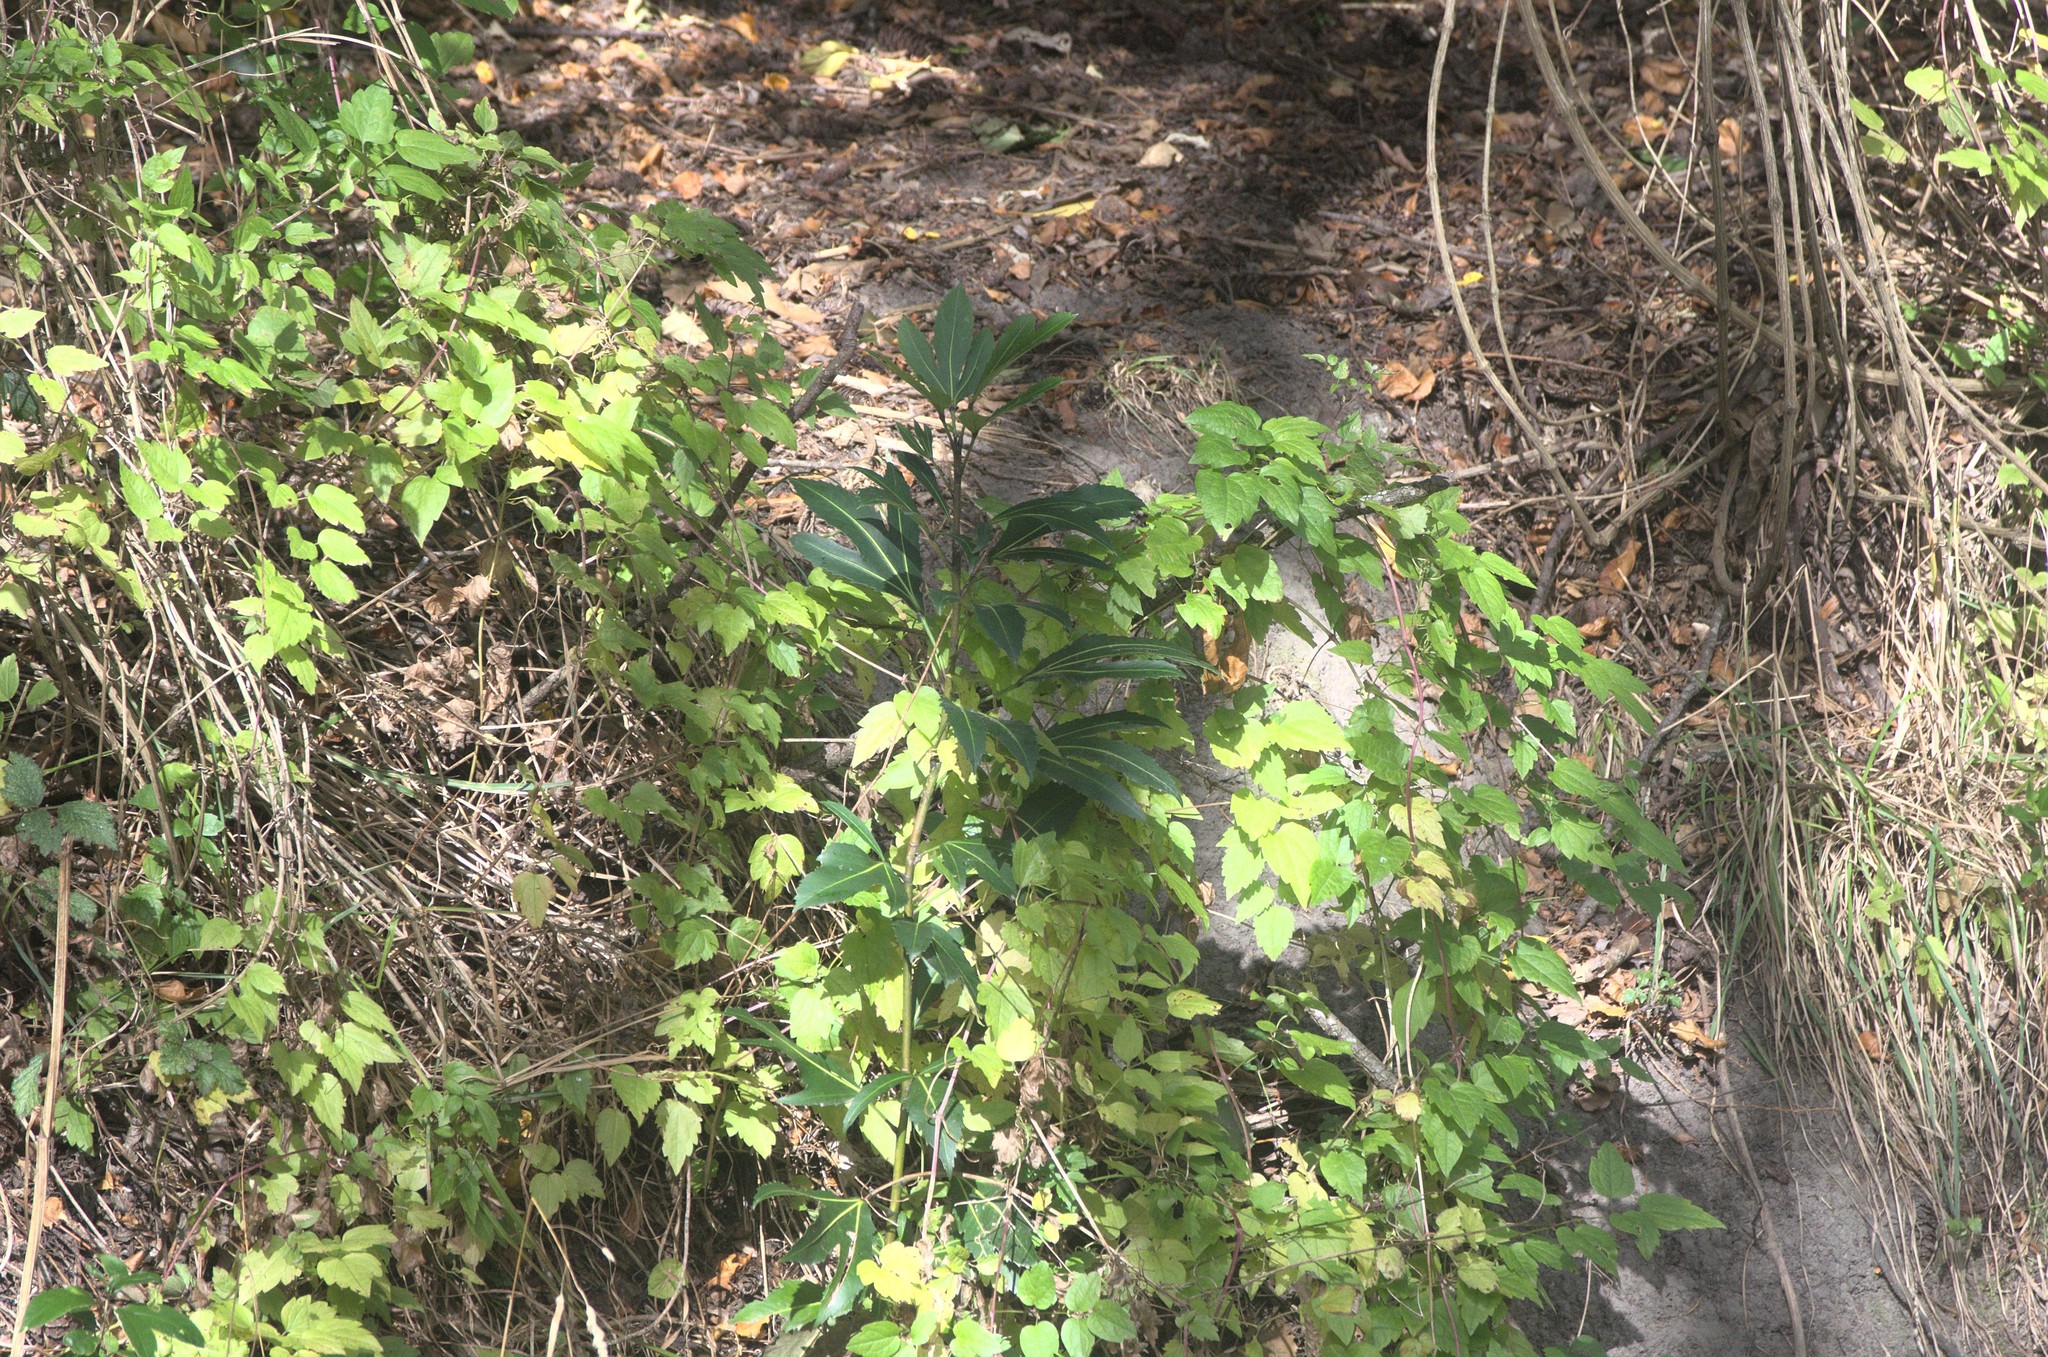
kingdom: Plantae
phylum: Tracheophyta
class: Magnoliopsida
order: Apiales
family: Araliaceae
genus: Pseudopanax
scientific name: Pseudopanax
